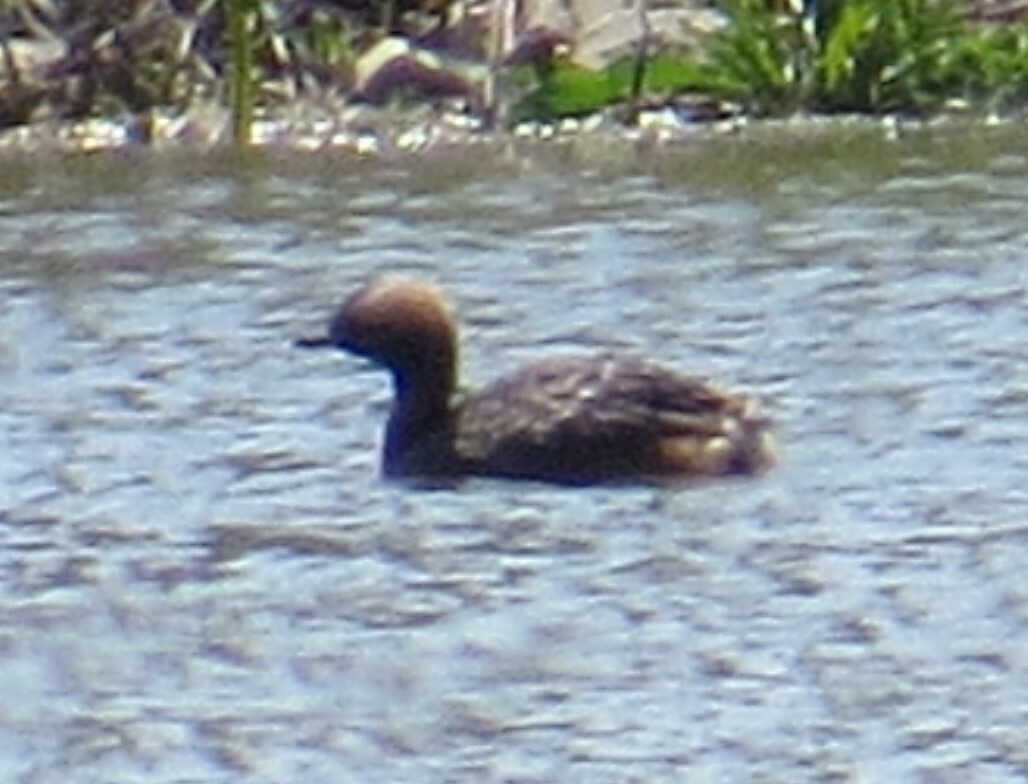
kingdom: Animalia
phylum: Chordata
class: Aves
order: Podicipediformes
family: Podicipedidae
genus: Podiceps
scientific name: Podiceps auritus
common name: Horned grebe
